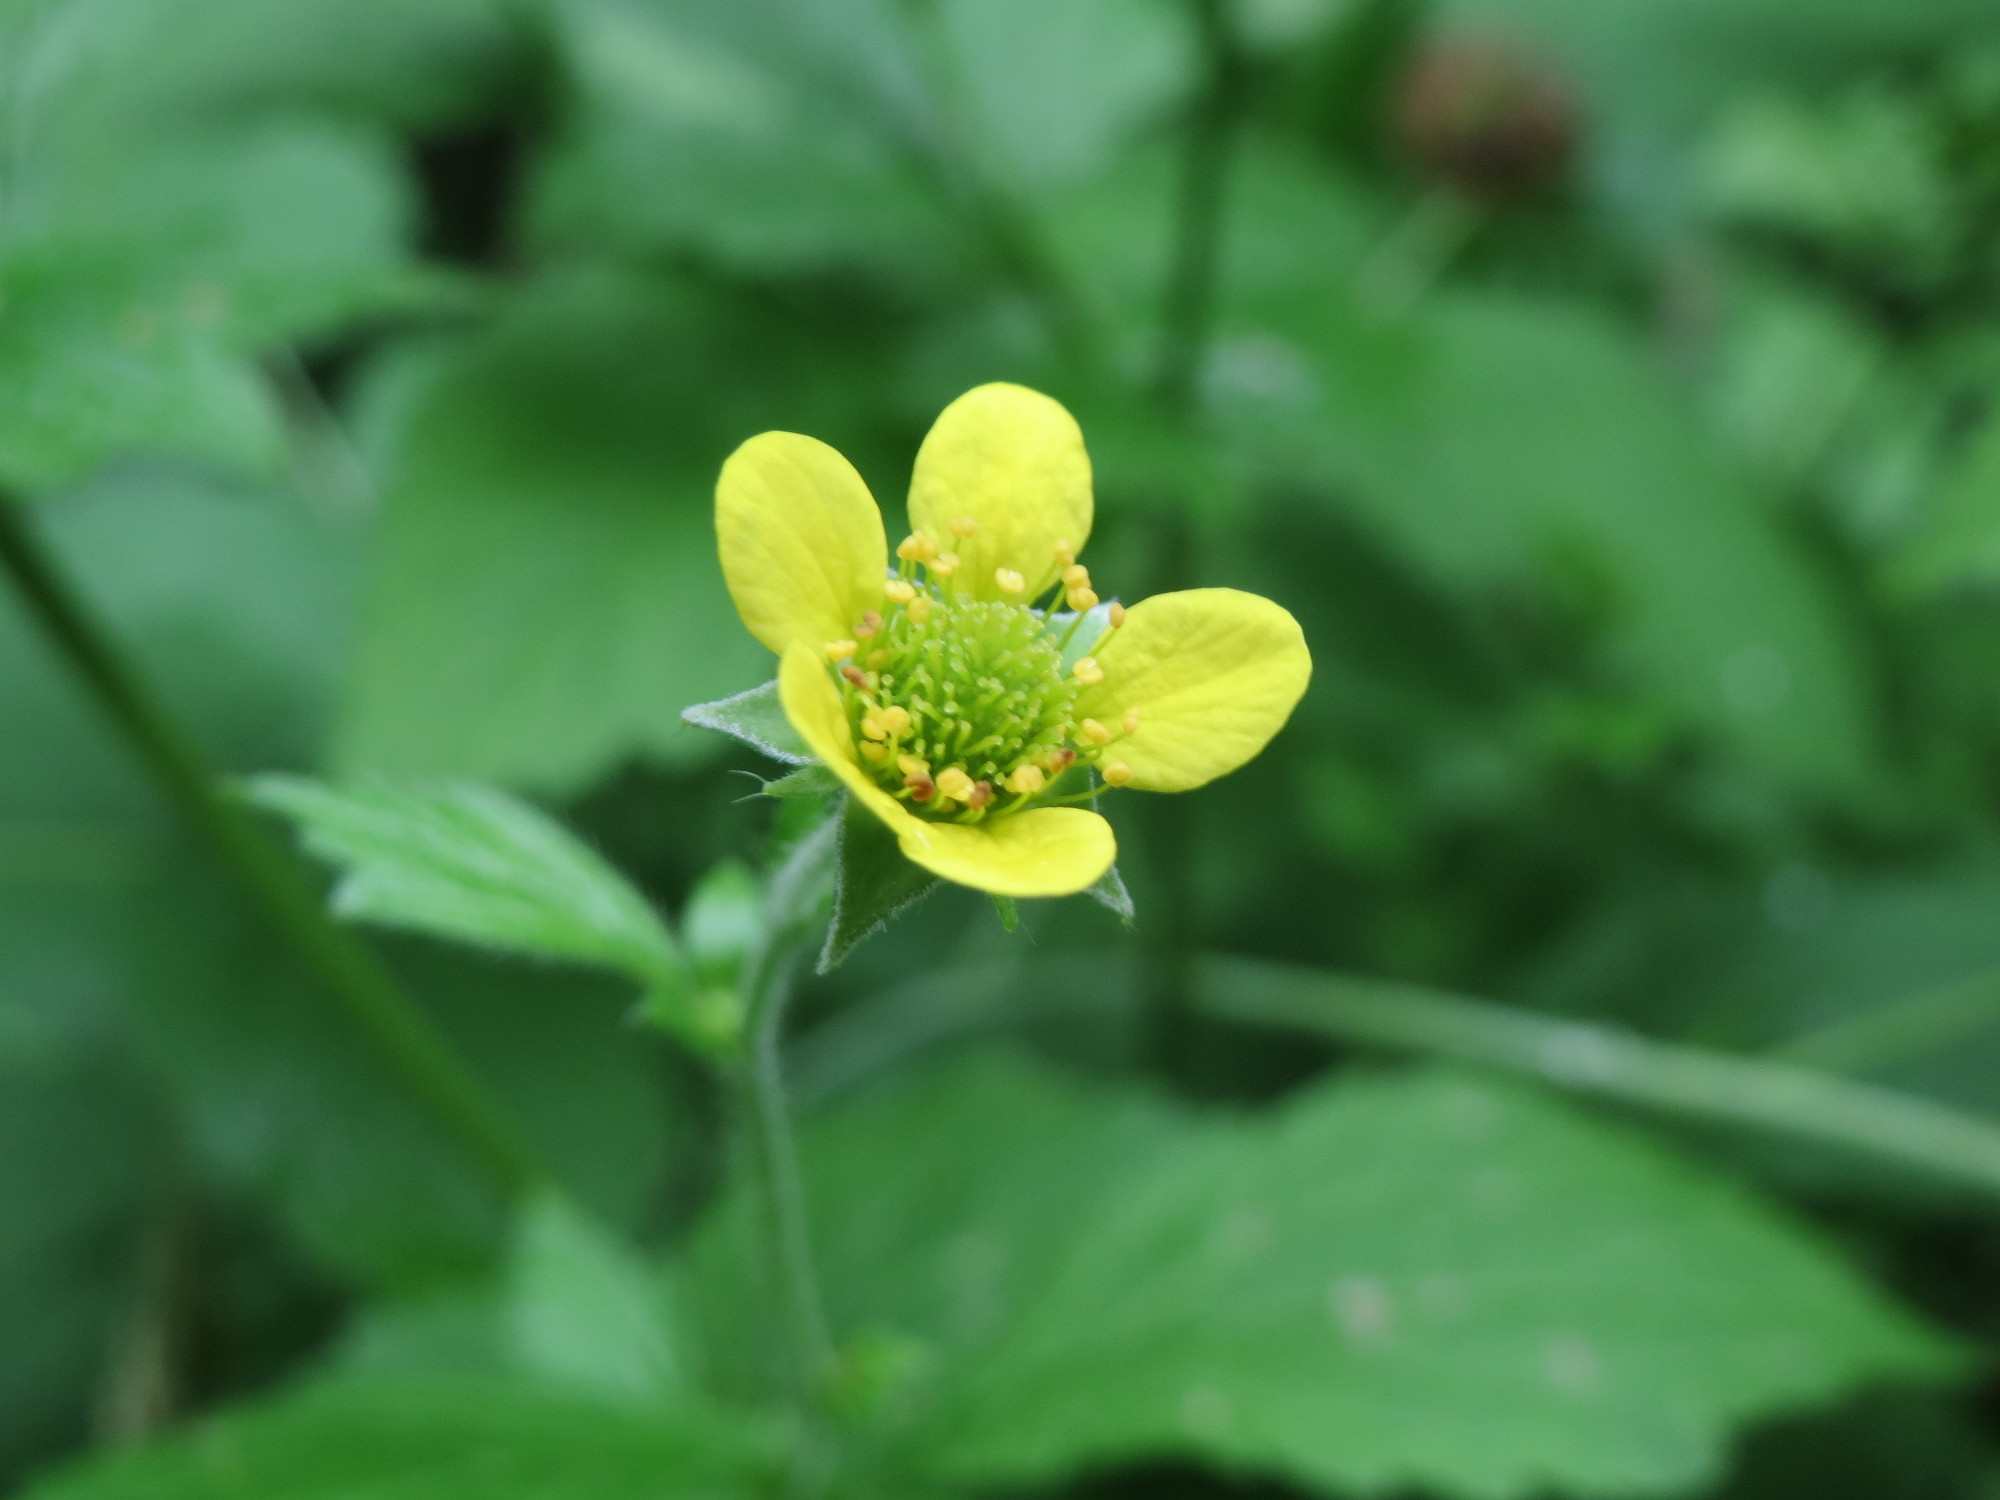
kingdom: Plantae
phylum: Tracheophyta
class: Magnoliopsida
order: Rosales
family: Rosaceae
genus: Geum
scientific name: Geum urbanum
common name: Wood avens
